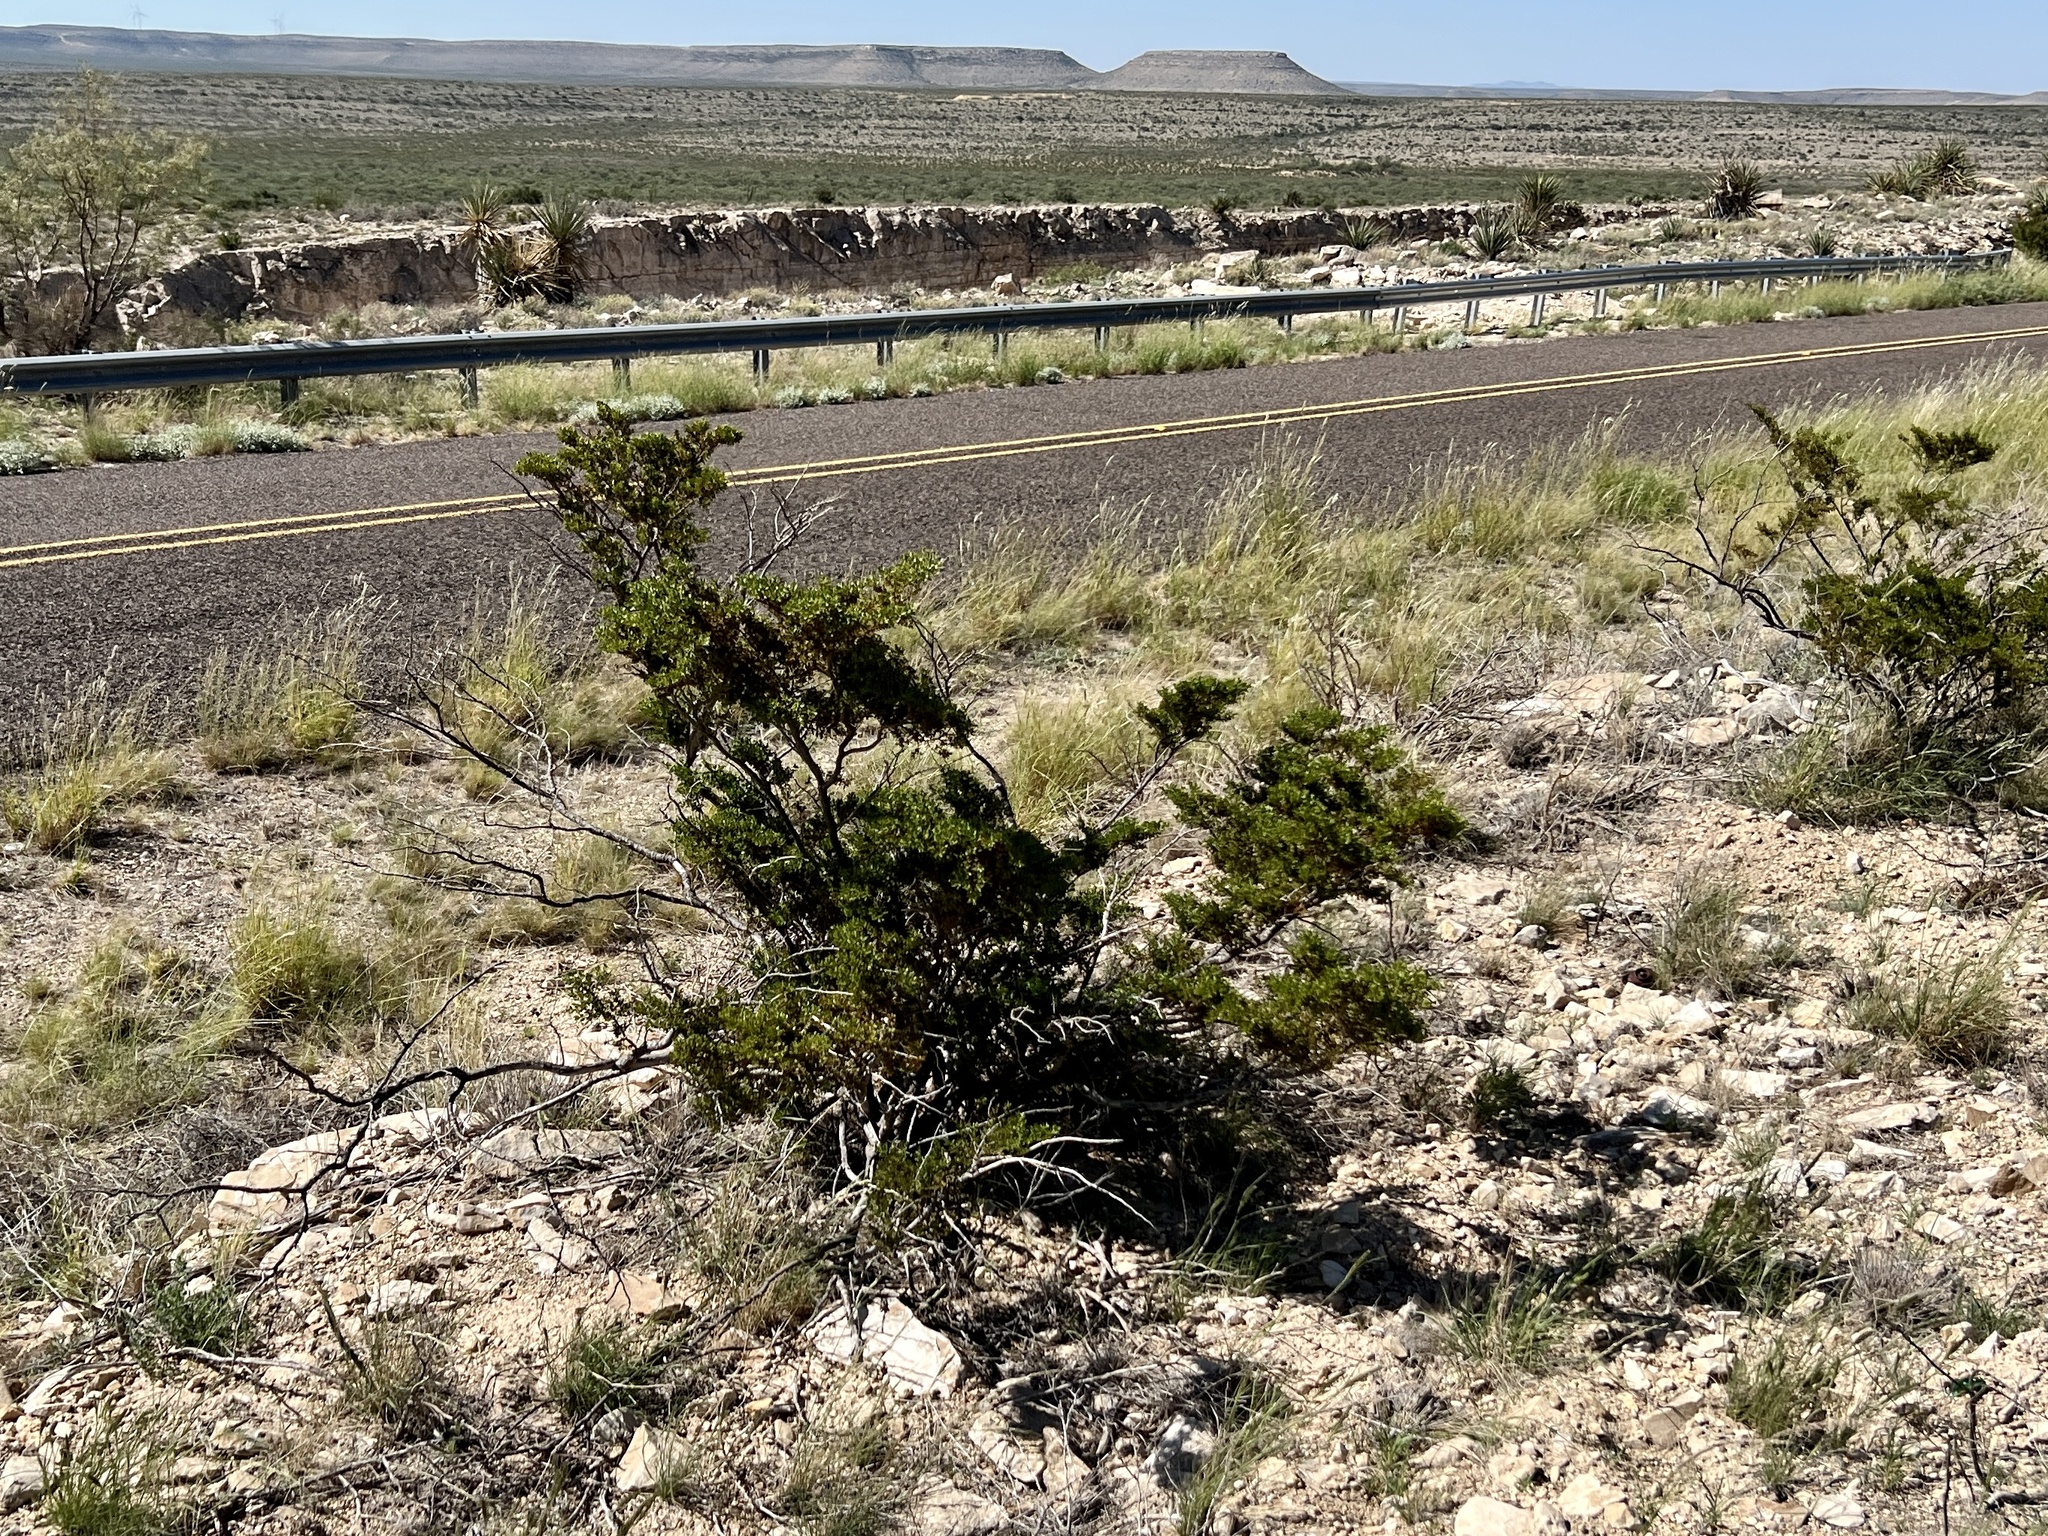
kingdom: Plantae
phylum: Tracheophyta
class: Magnoliopsida
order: Zygophyllales
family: Zygophyllaceae
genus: Larrea
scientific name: Larrea tridentata
